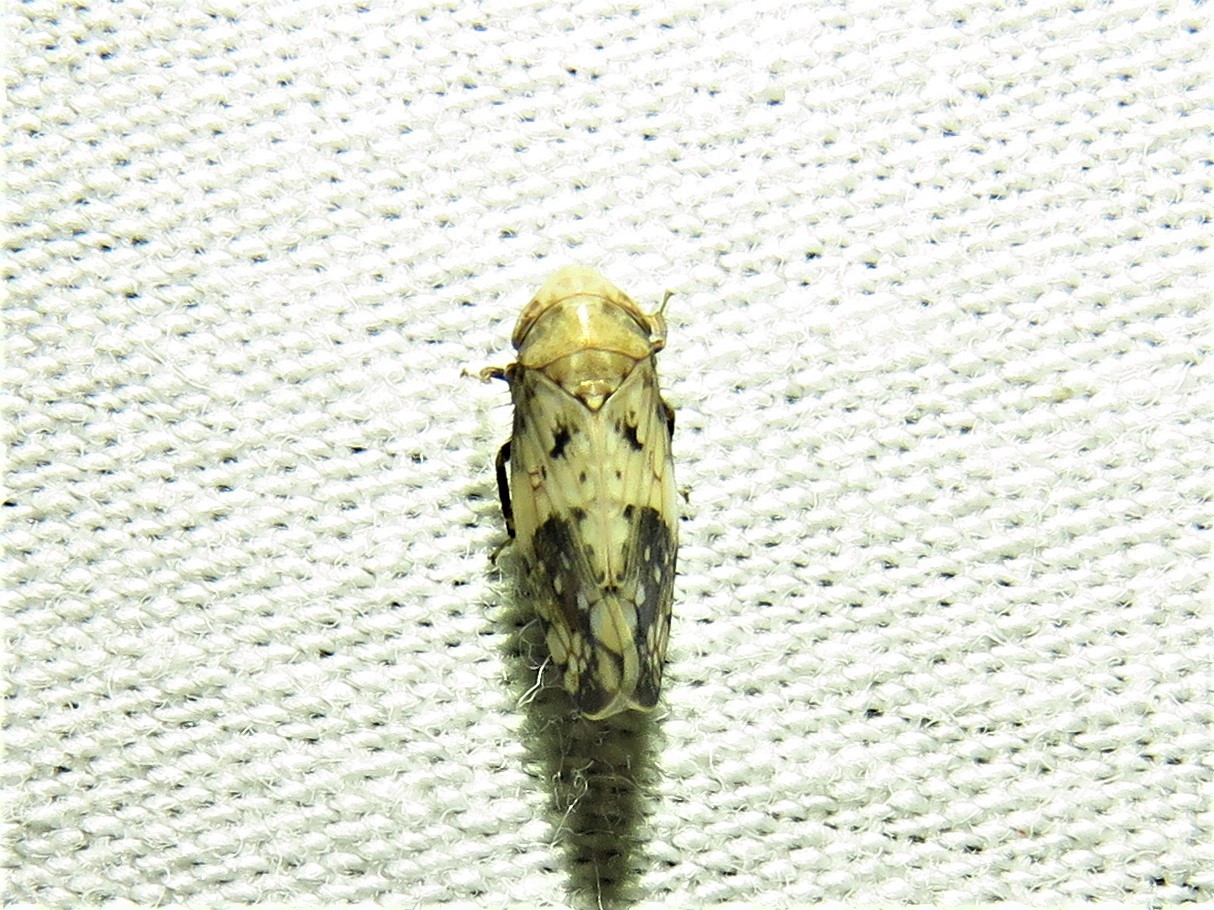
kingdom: Animalia
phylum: Arthropoda
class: Insecta
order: Hemiptera
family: Cicadellidae
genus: Menosoma
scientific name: Menosoma cinctum
